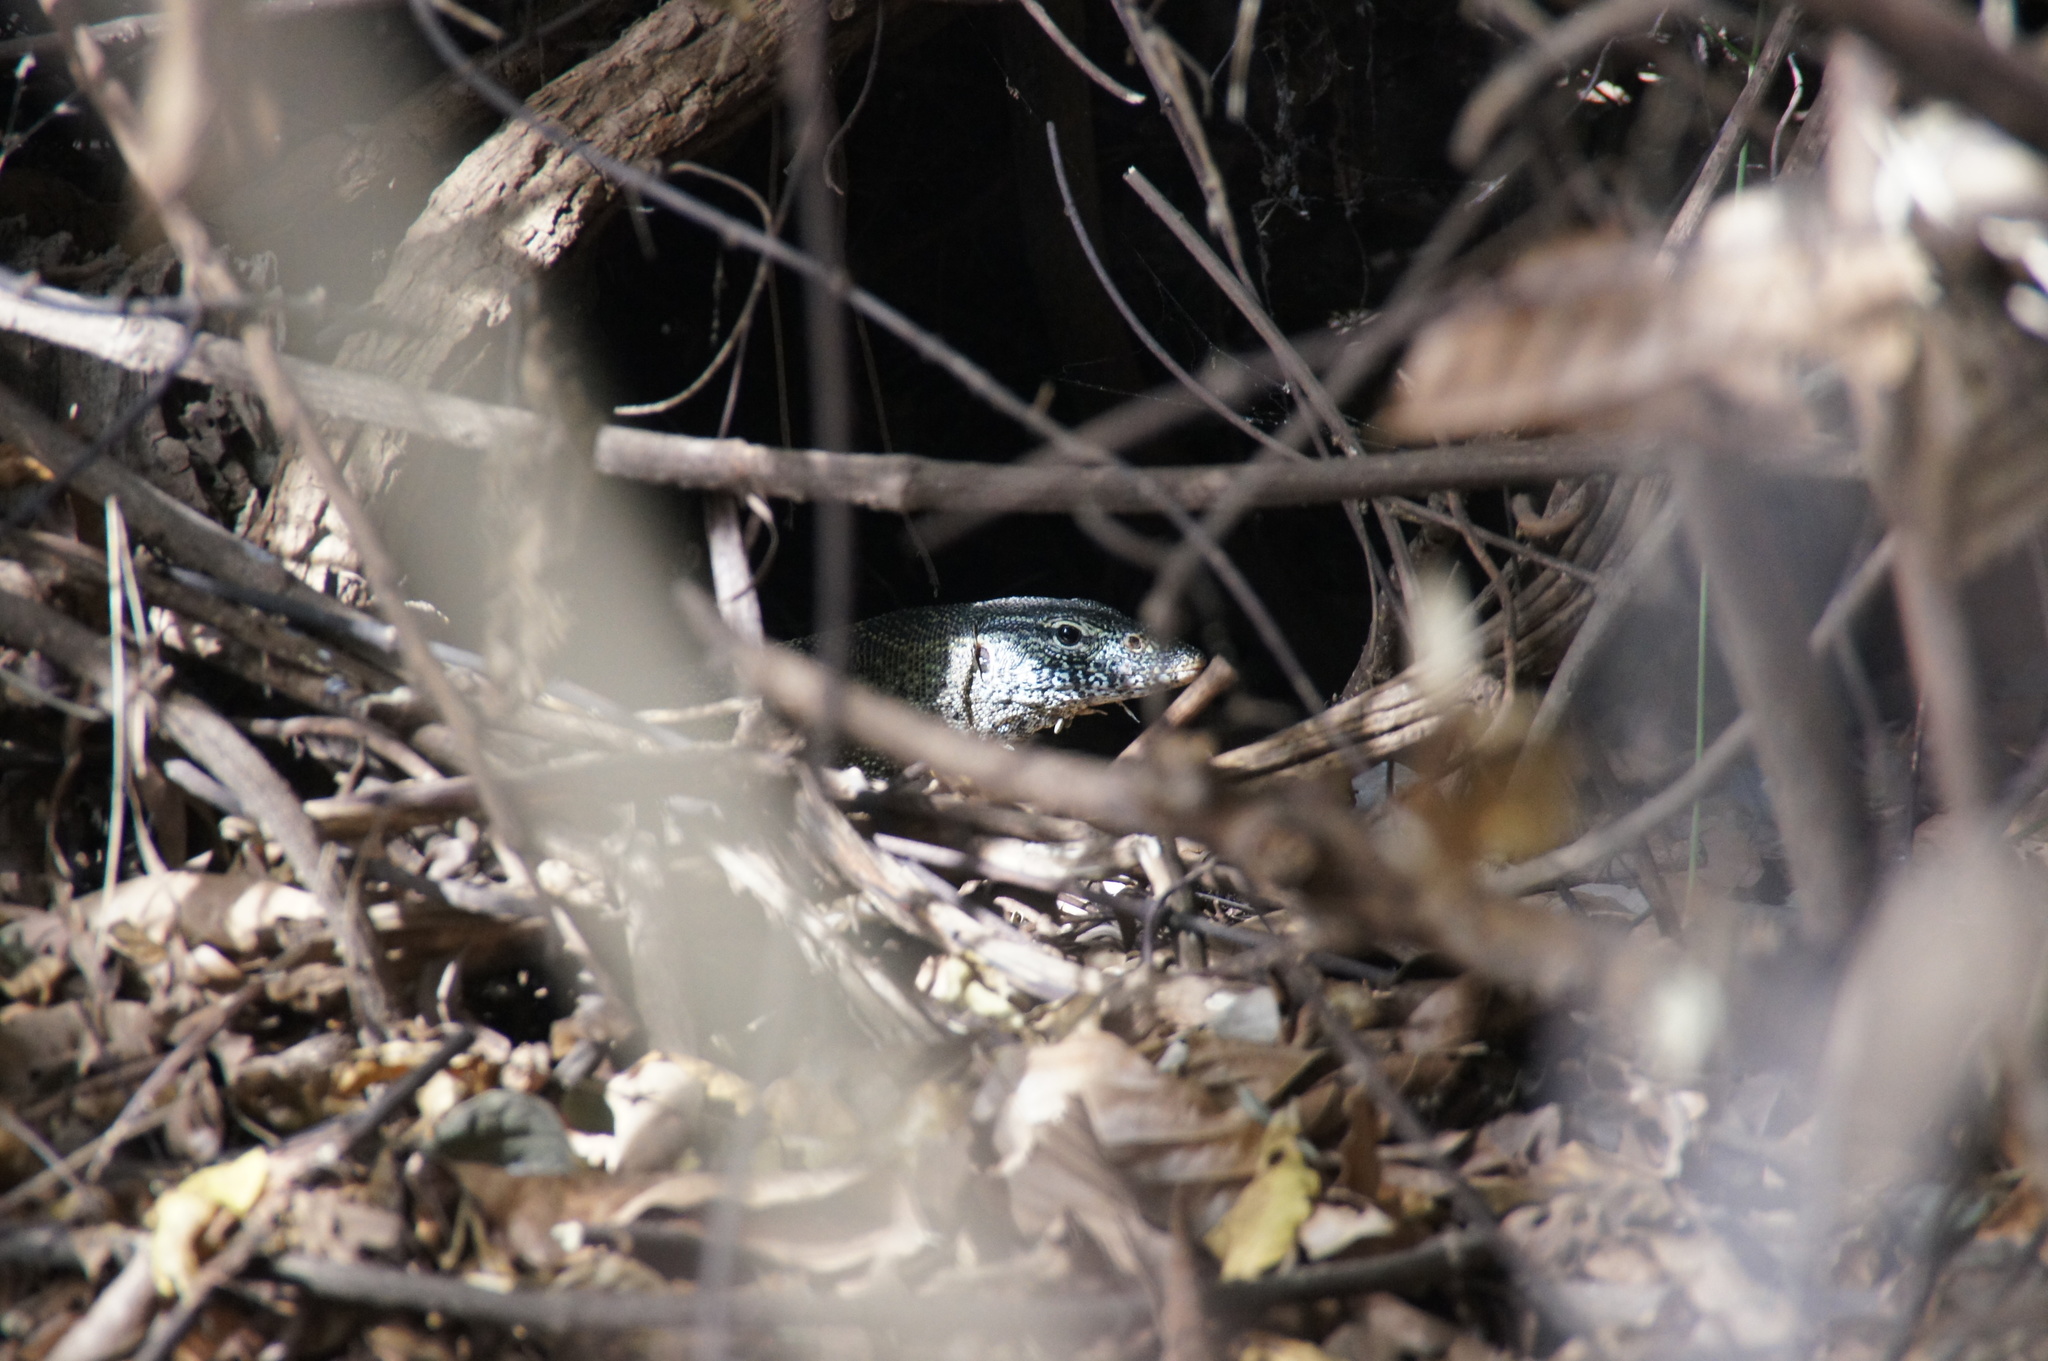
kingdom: Animalia
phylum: Chordata
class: Squamata
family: Varanidae
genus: Varanus
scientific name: Varanus niloticus
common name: Nile monitor
